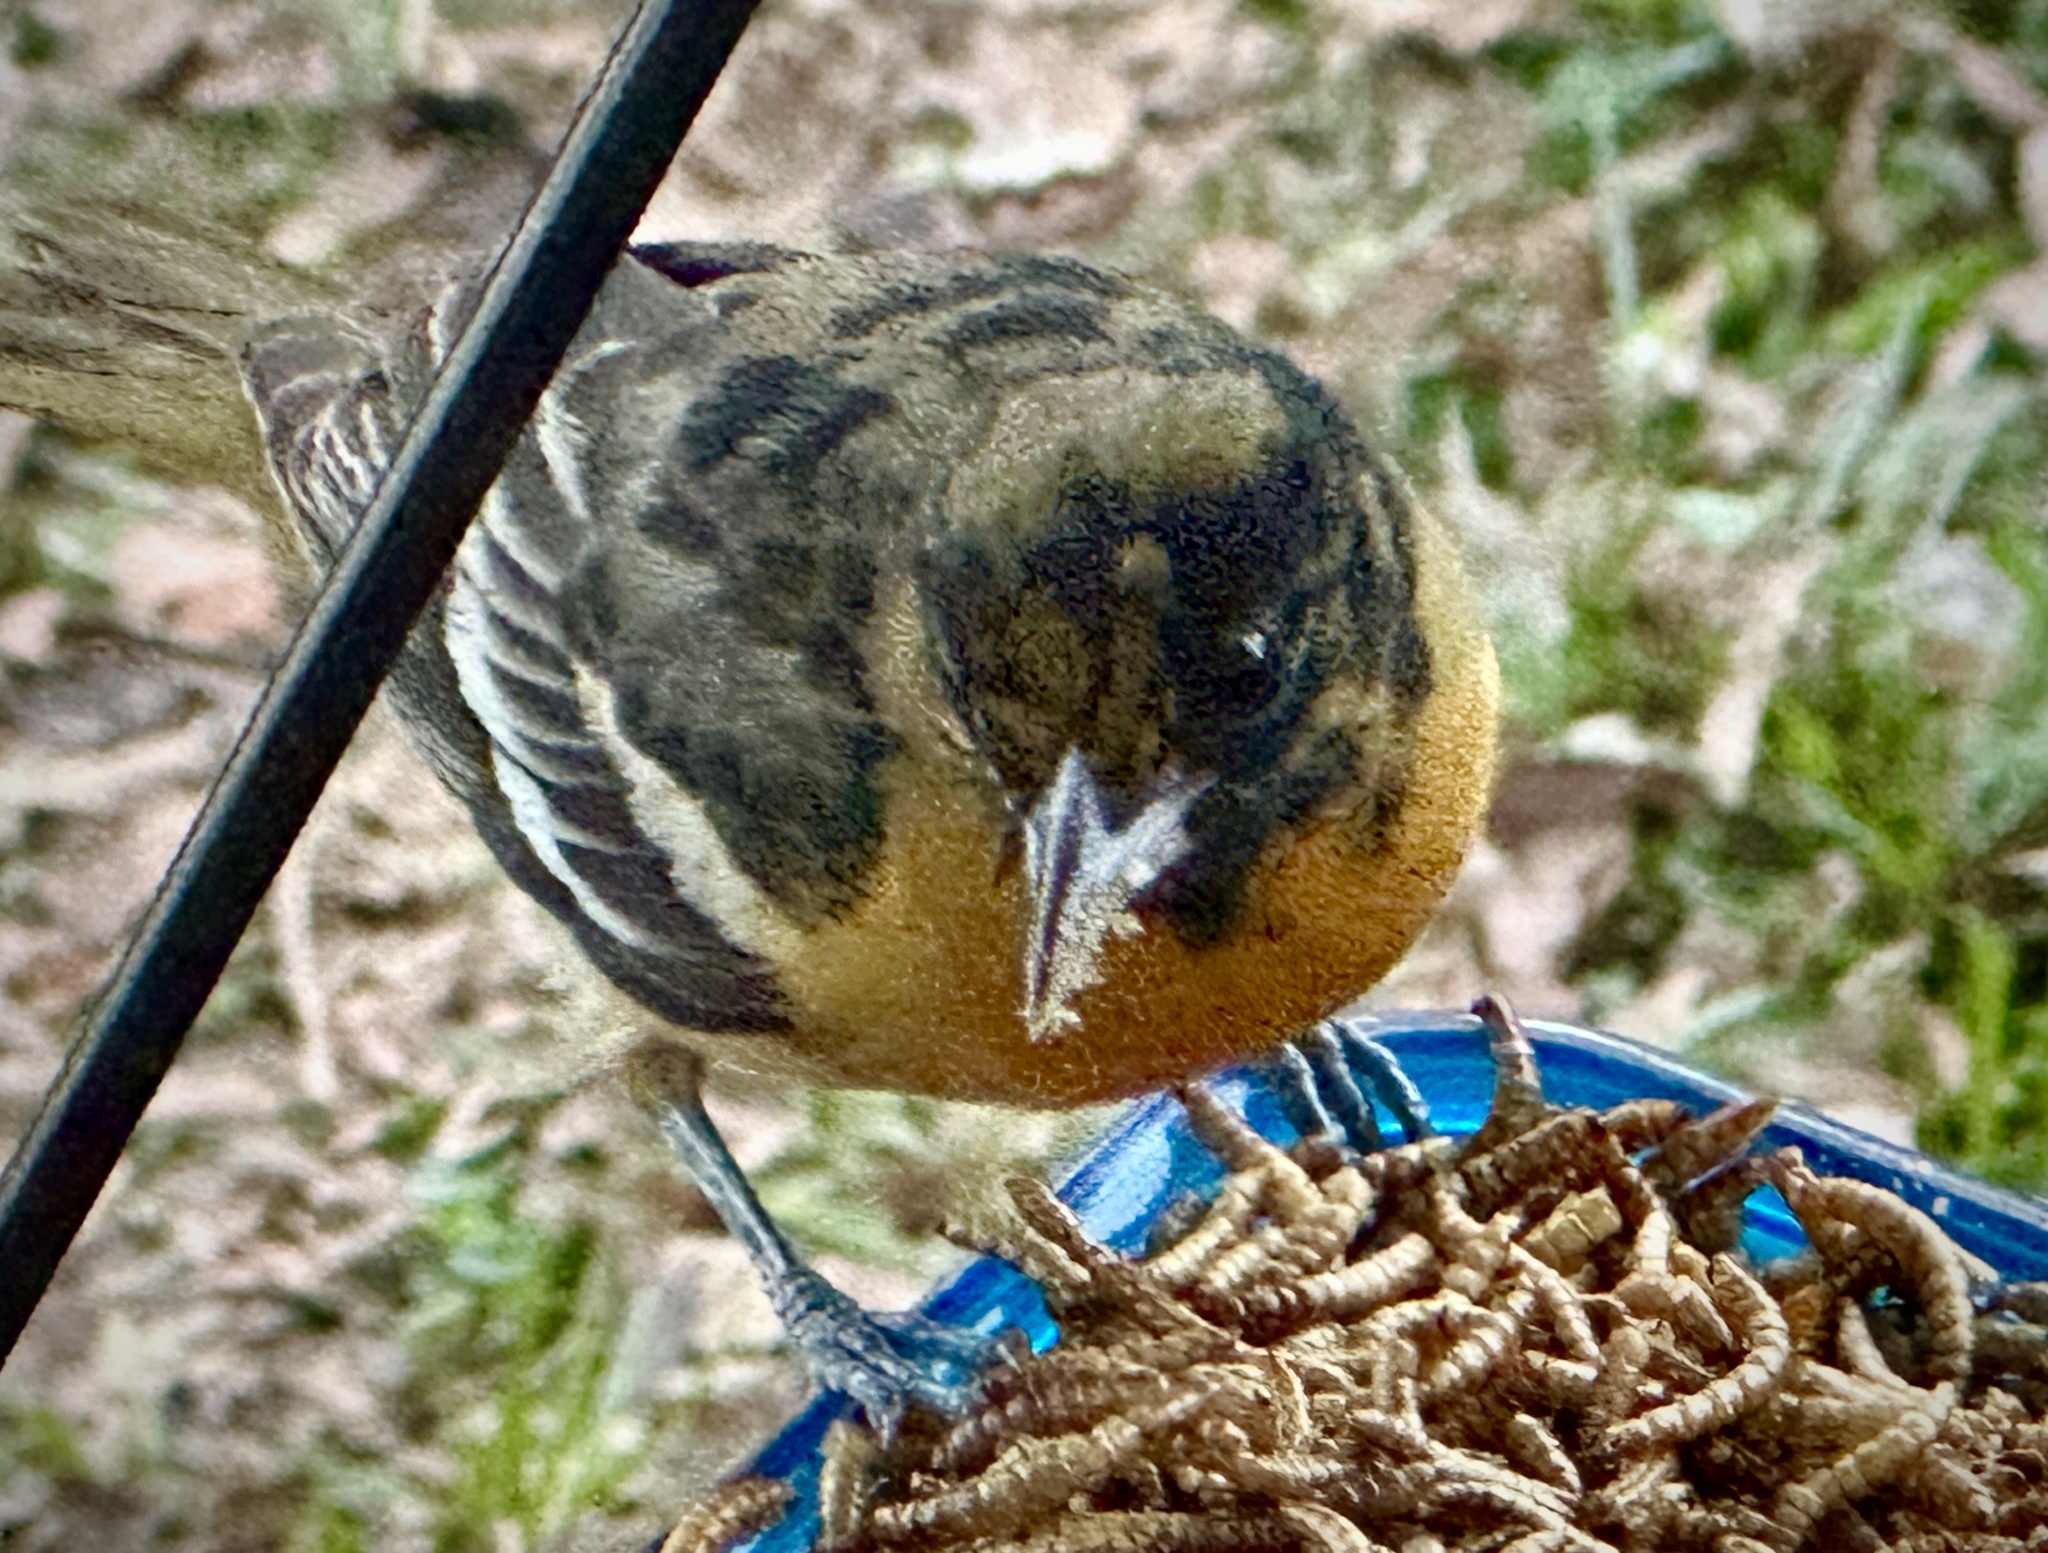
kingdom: Animalia
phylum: Chordata
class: Aves
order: Passeriformes
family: Icteridae
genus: Icterus
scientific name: Icterus galbula
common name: Baltimore oriole
